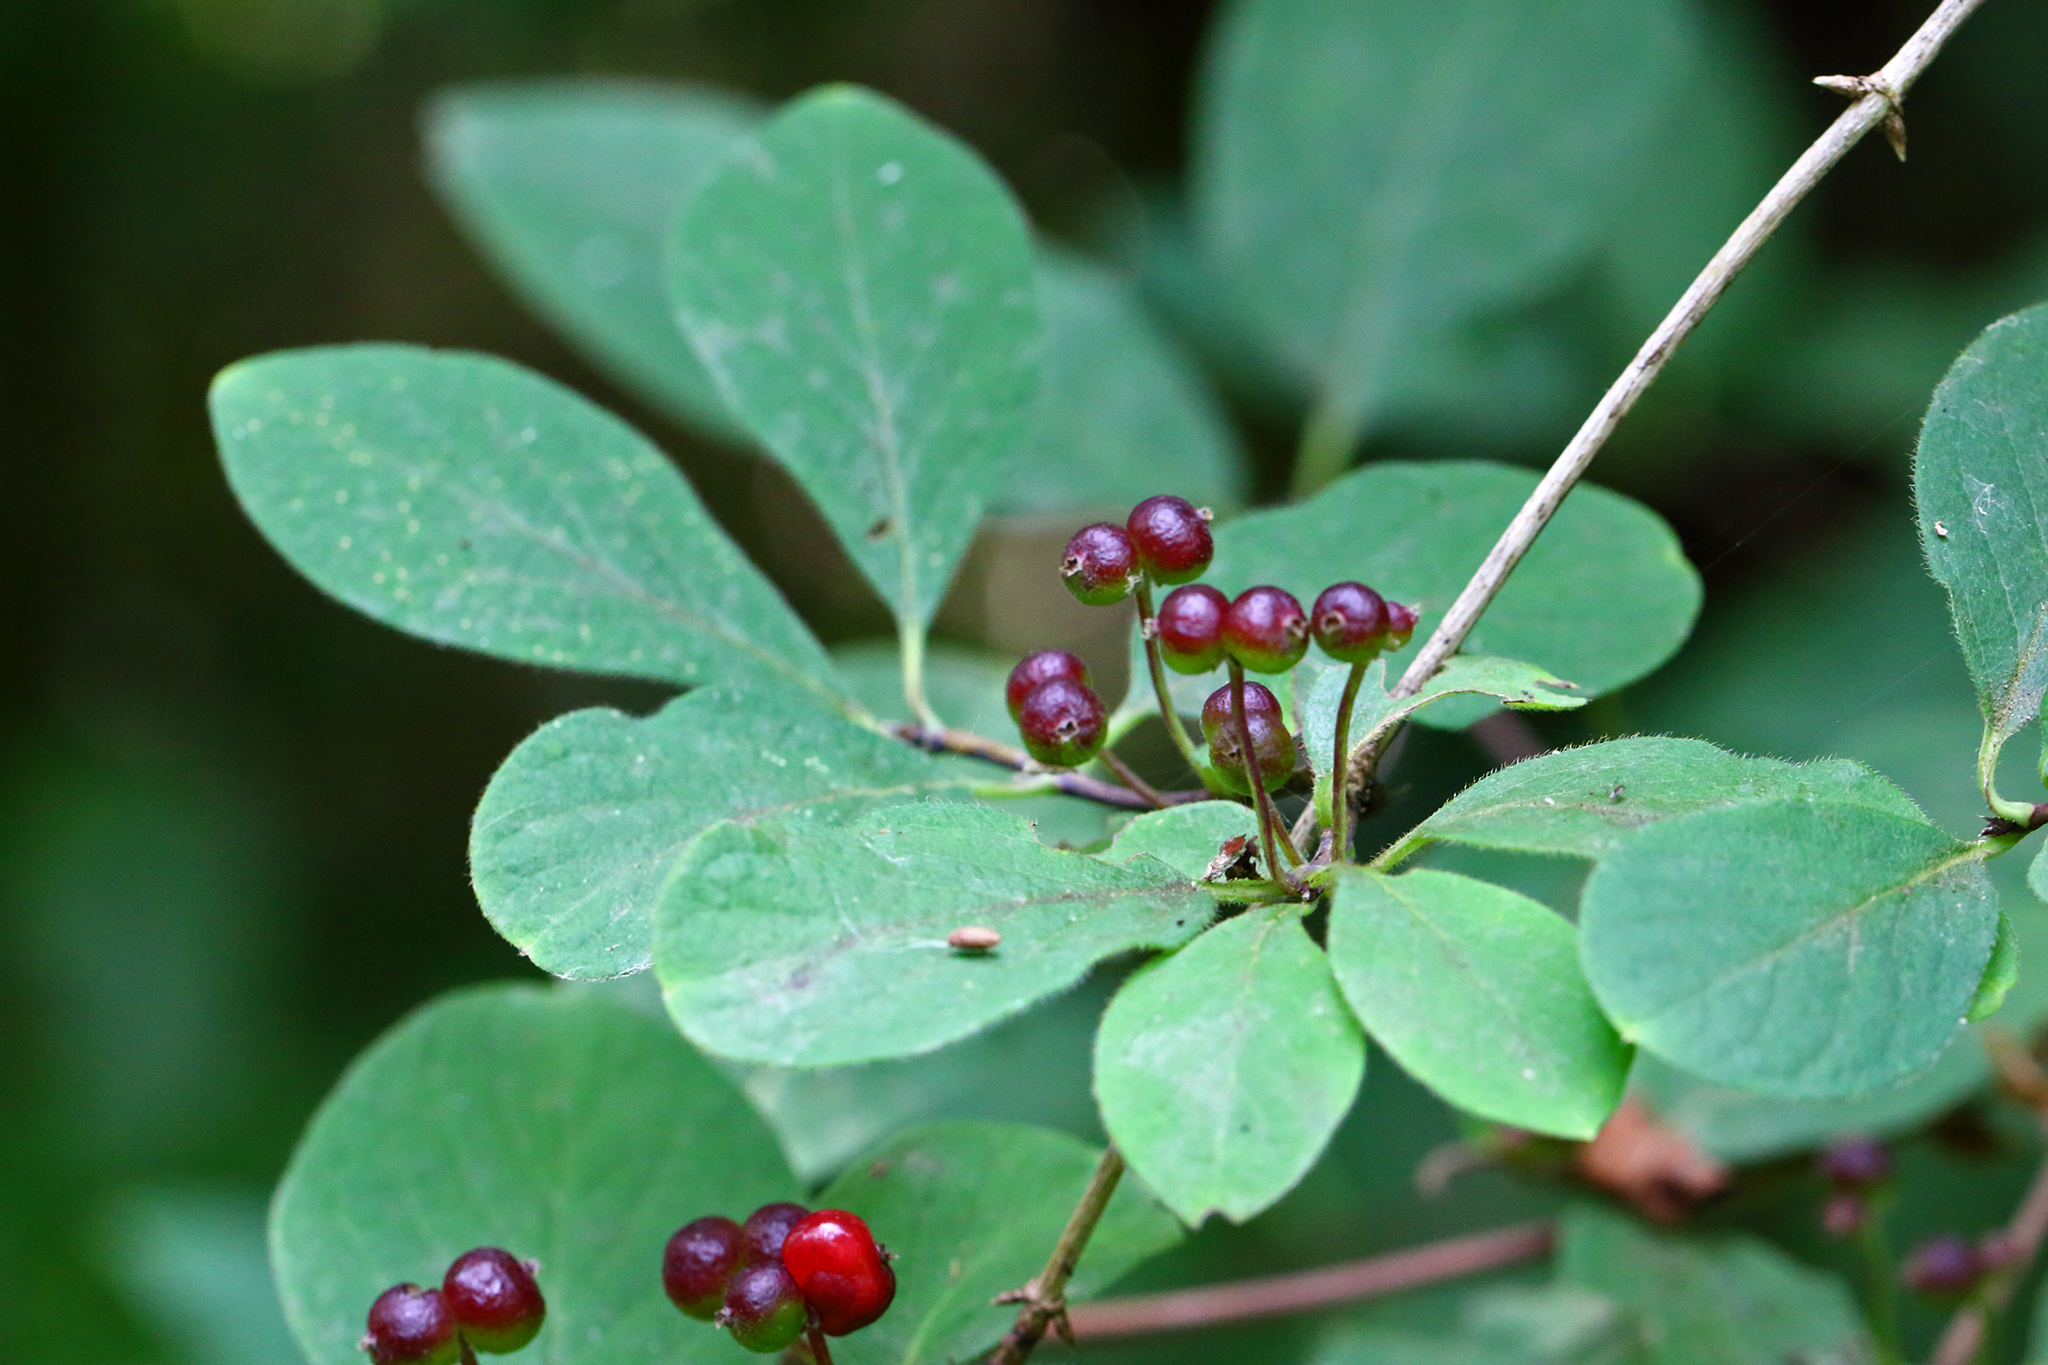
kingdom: Plantae
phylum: Tracheophyta
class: Magnoliopsida
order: Dipsacales
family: Caprifoliaceae
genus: Lonicera
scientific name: Lonicera xylosteum
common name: Fly honeysuckle
